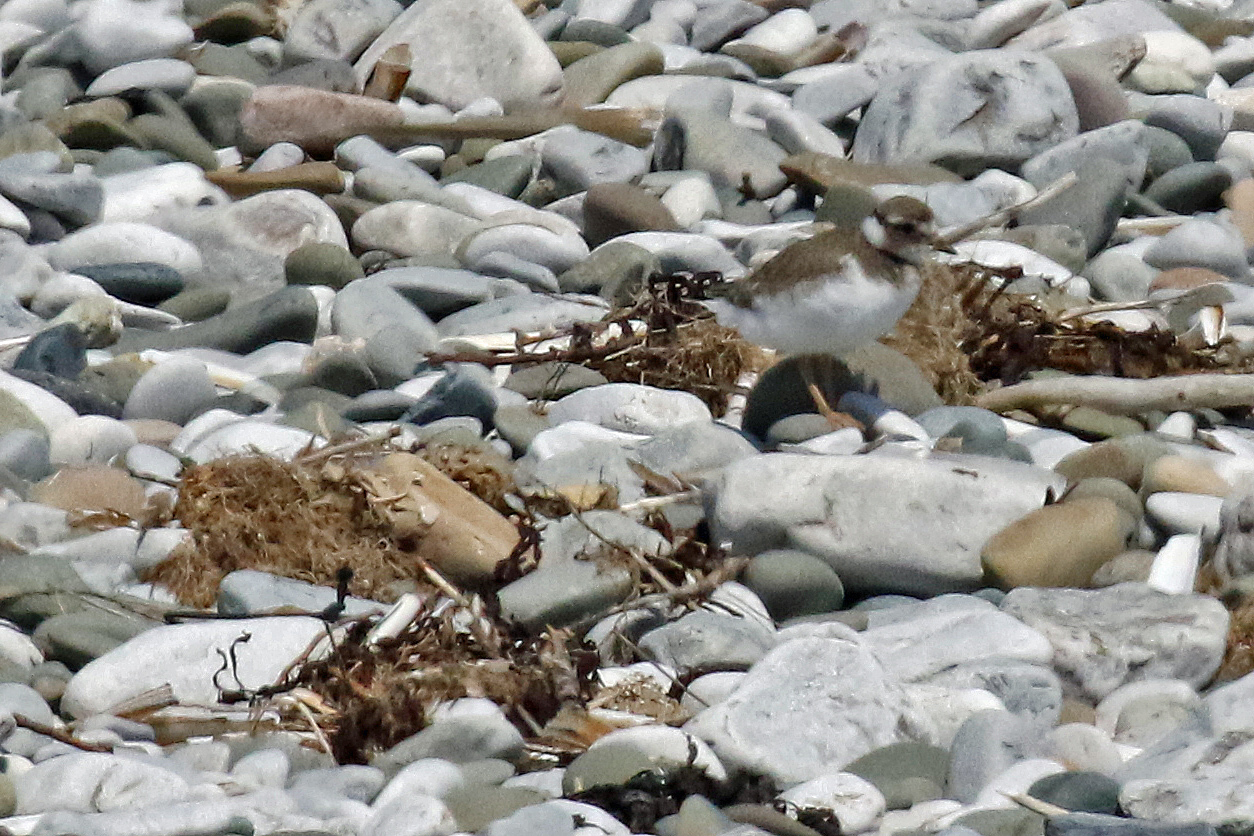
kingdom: Animalia
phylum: Chordata
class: Aves
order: Charadriiformes
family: Charadriidae
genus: Charadrius
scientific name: Charadrius hiaticula
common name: Common ringed plover
